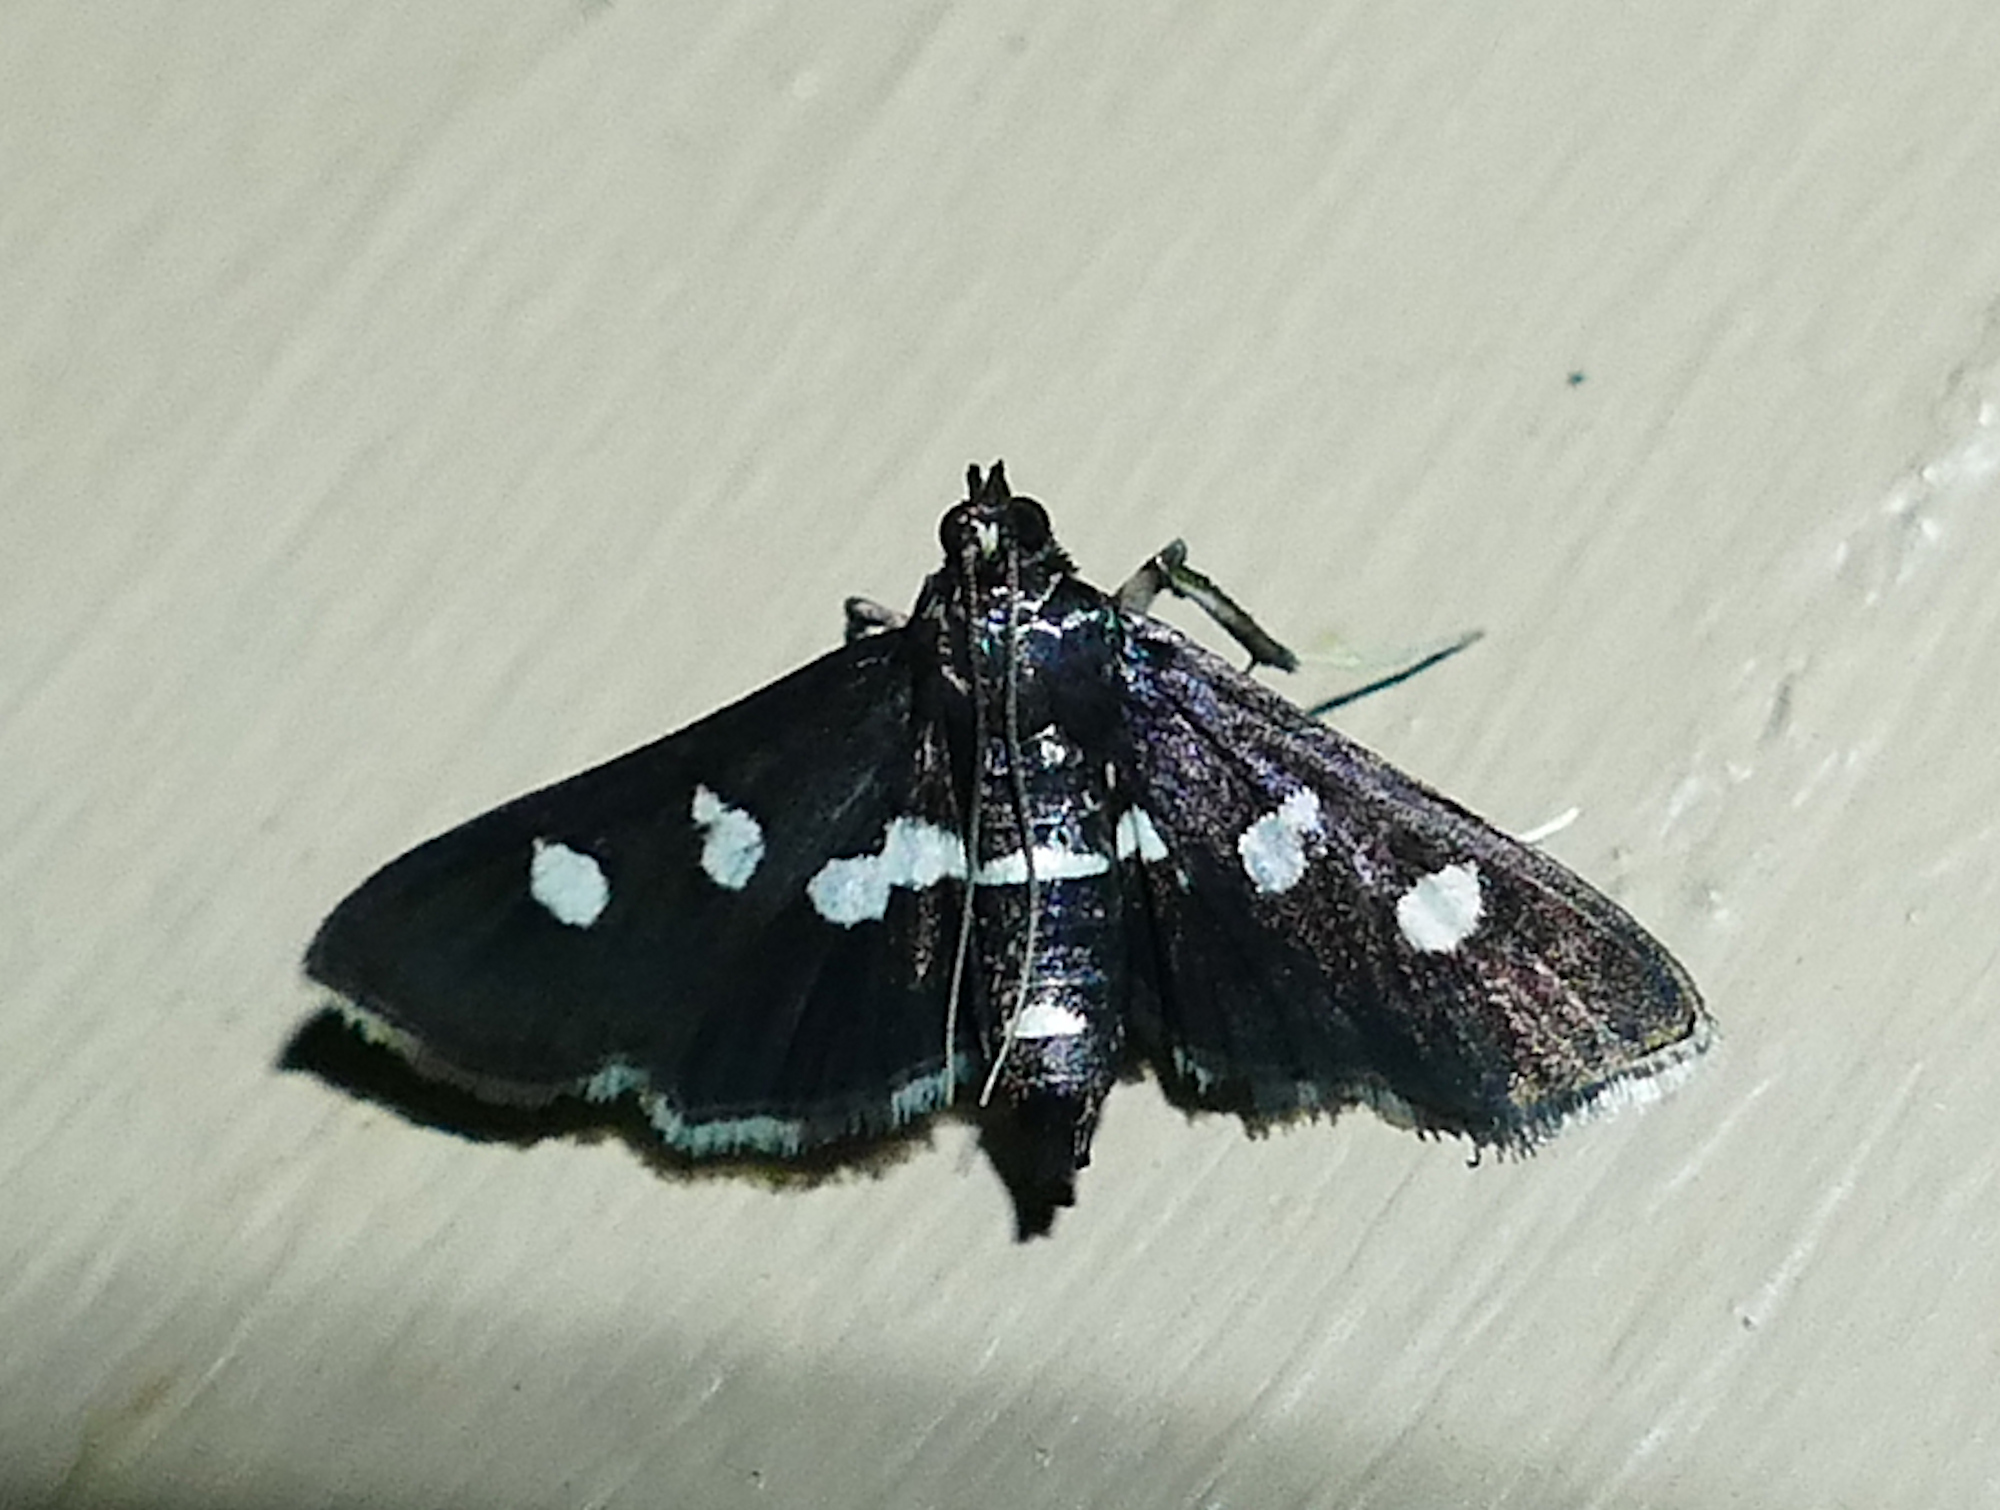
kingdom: Animalia
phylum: Arthropoda
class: Insecta
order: Lepidoptera
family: Crambidae
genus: Desmia
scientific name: Desmia
